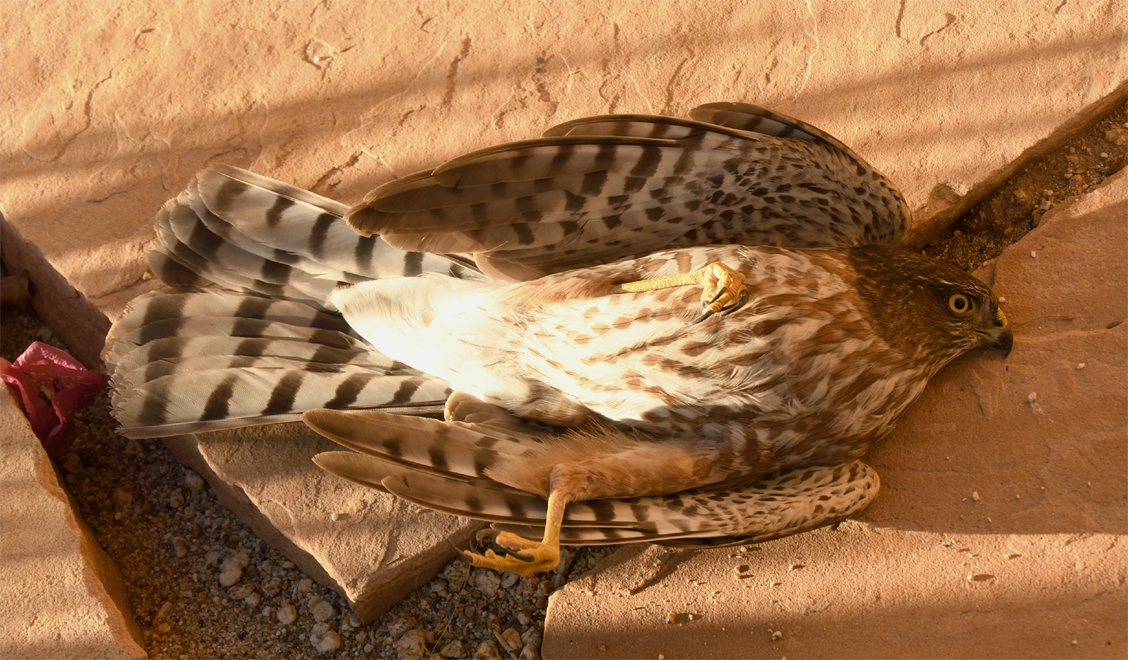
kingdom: Animalia
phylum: Chordata
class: Aves
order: Accipitriformes
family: Accipitridae
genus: Accipiter
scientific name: Accipiter striatus
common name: Sharp-shinned hawk
